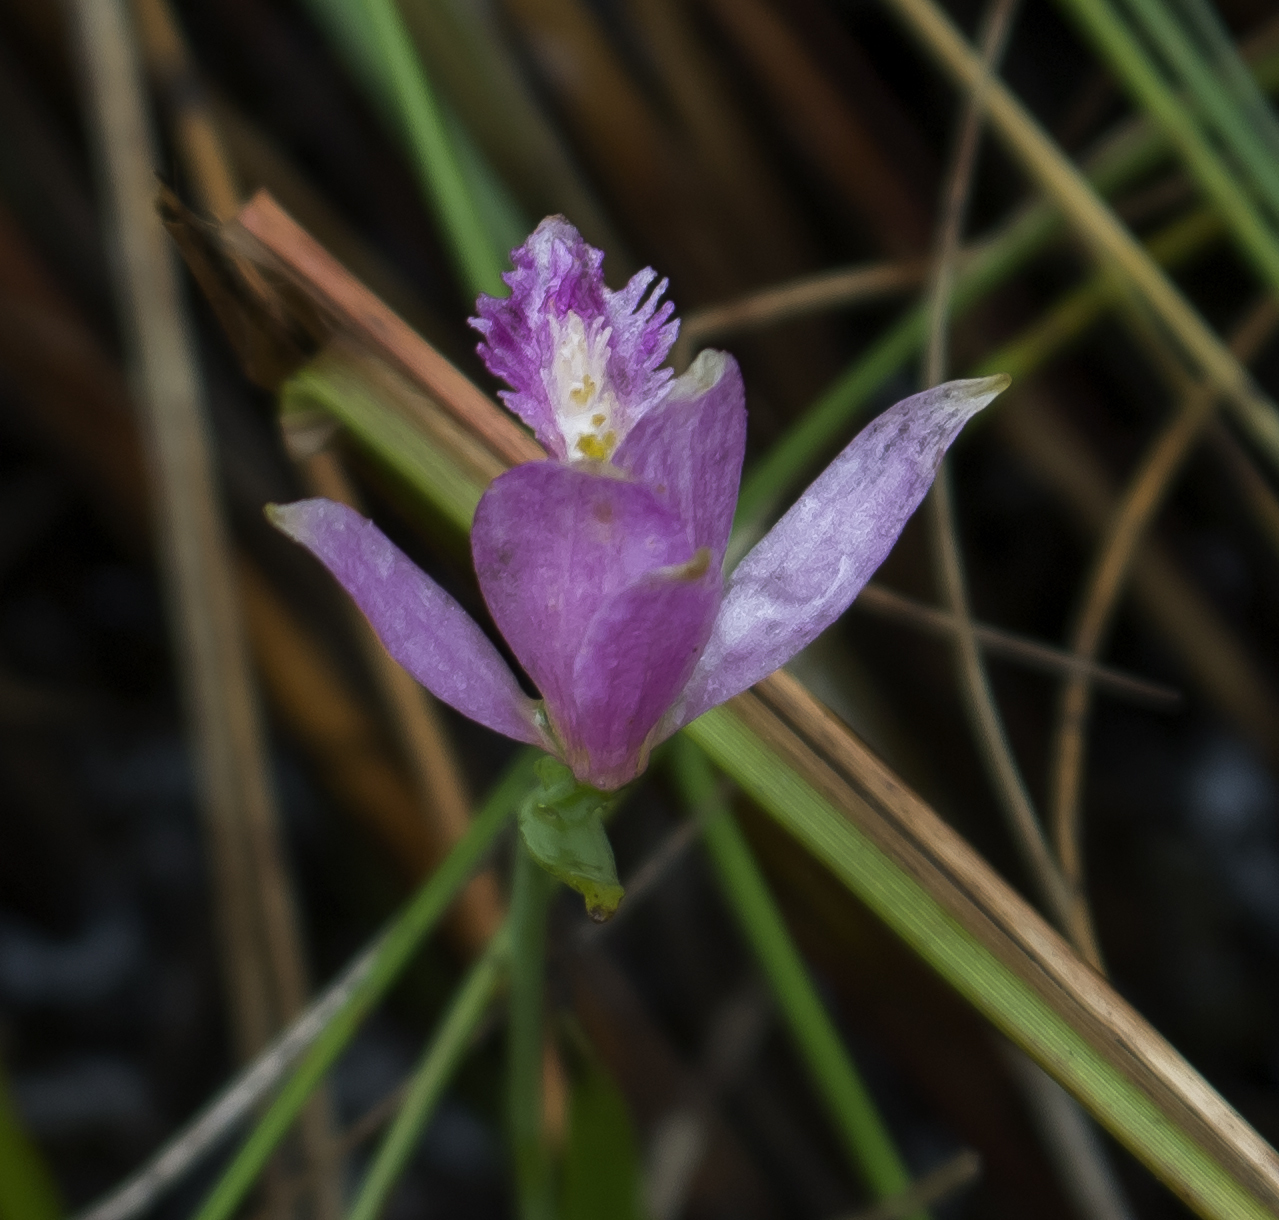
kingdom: Plantae
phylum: Tracheophyta
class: Liliopsida
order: Asparagales
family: Orchidaceae
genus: Pogonia
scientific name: Pogonia ophioglossoides
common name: Rose pogonia
